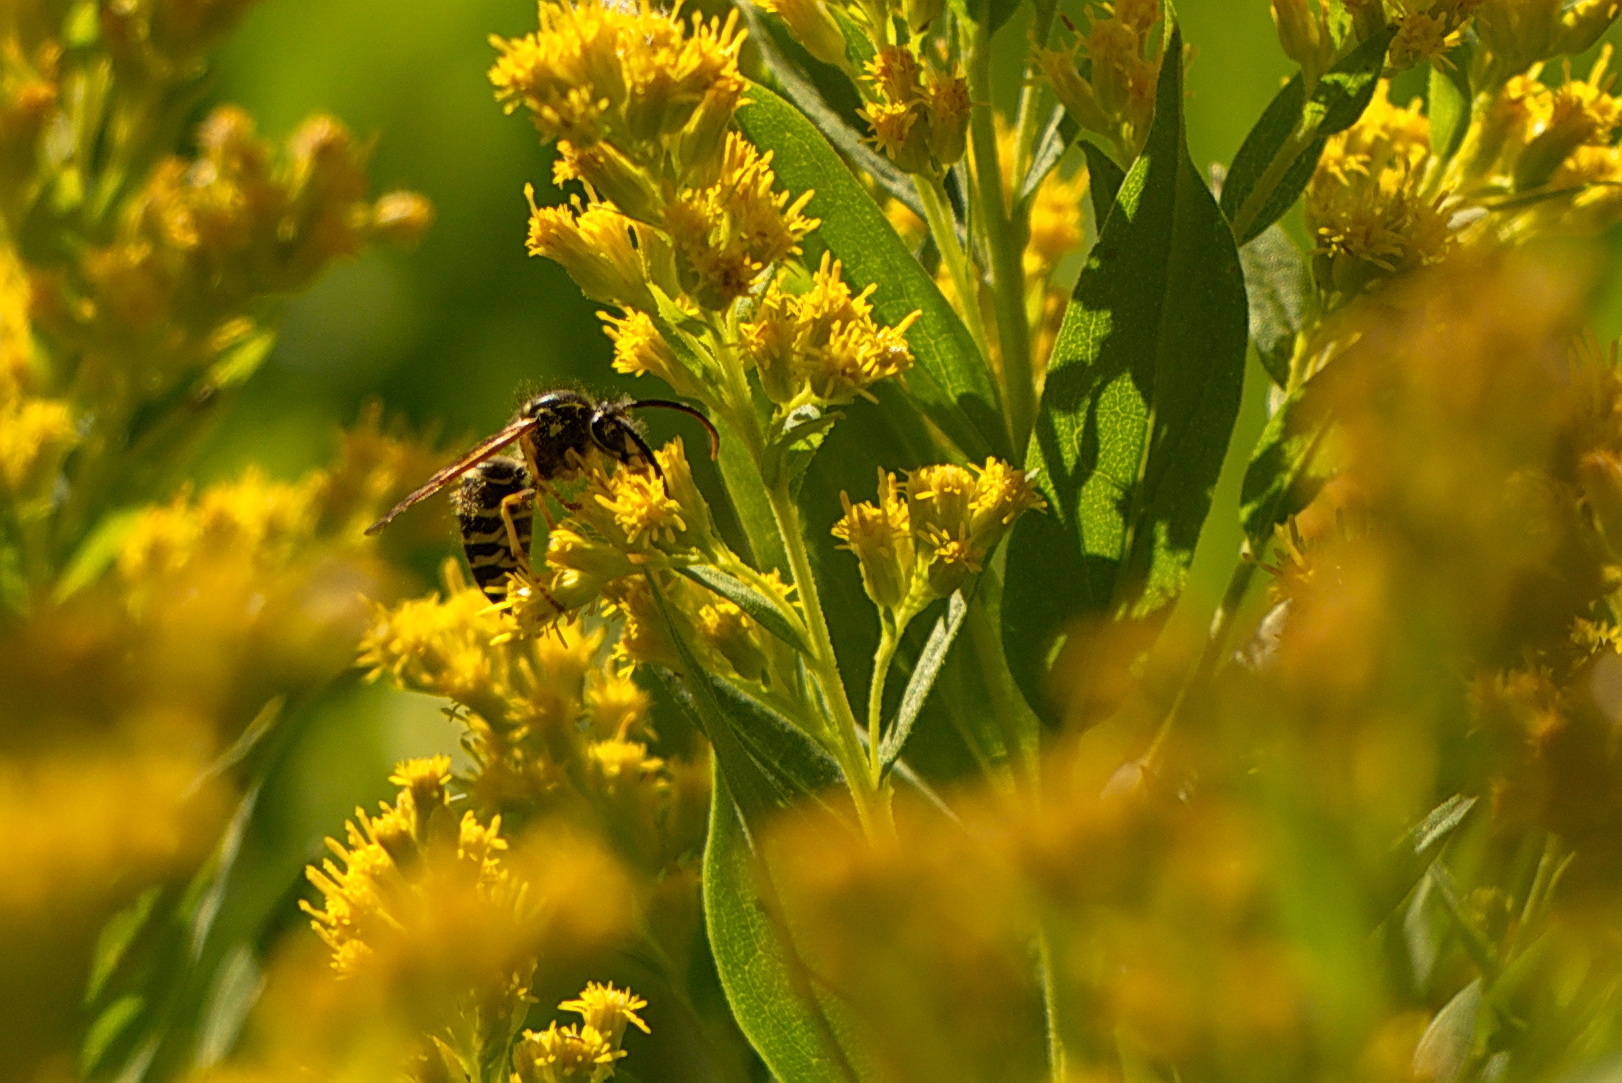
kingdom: Animalia
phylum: Arthropoda
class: Insecta
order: Hymenoptera
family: Vespidae
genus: Dolichovespula
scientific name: Dolichovespula arenaria
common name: Aerial yellowjacket
